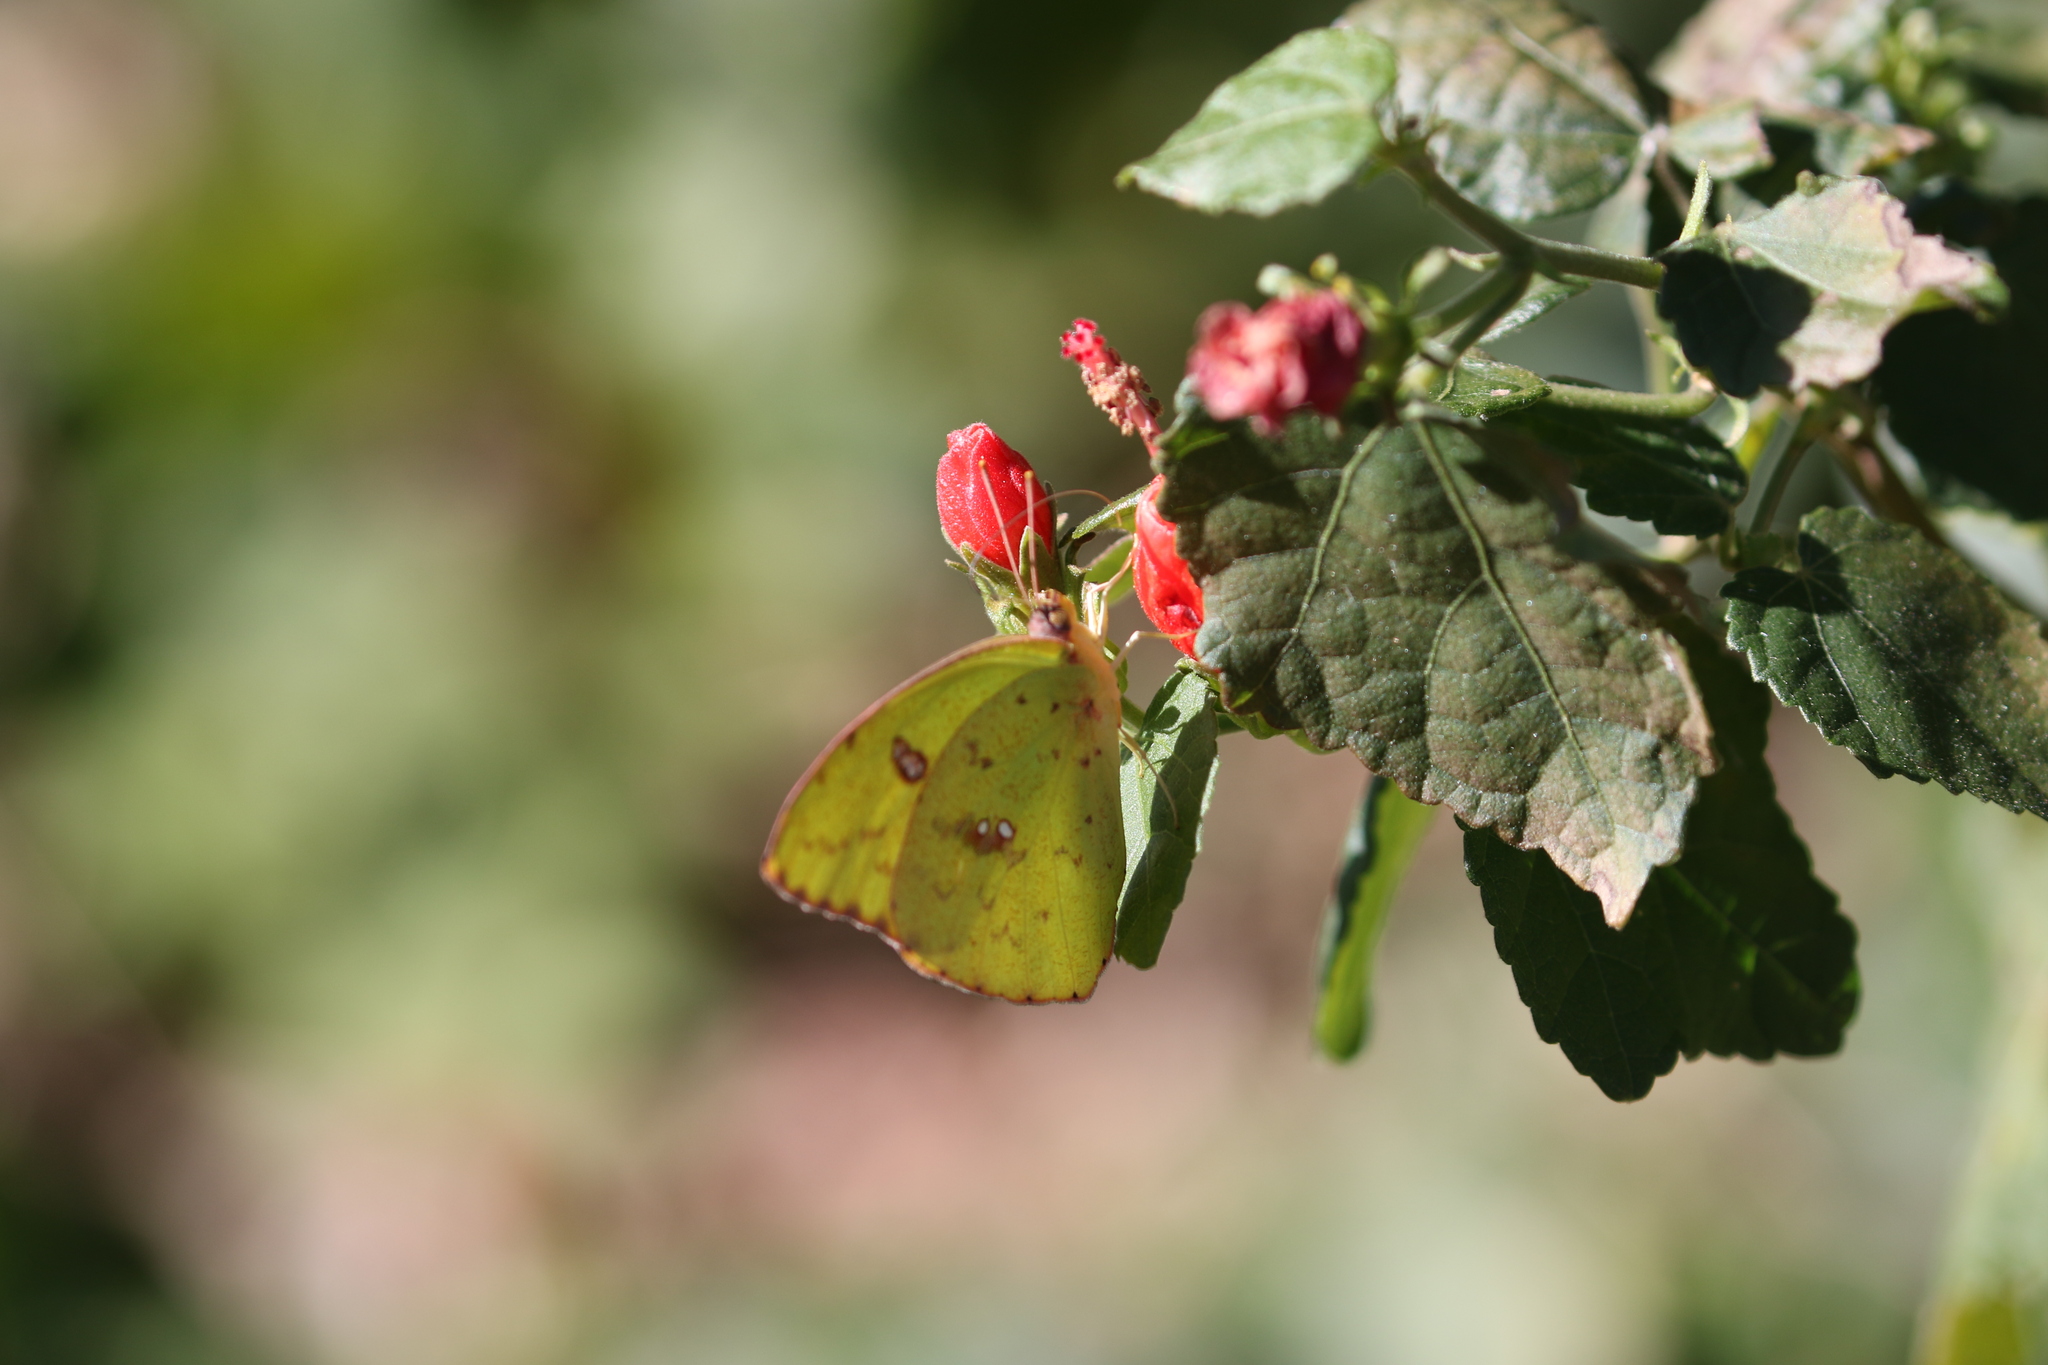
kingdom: Animalia
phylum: Arthropoda
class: Insecta
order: Lepidoptera
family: Pieridae
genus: Phoebis
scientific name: Phoebis sennae
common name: Cloudless sulphur
